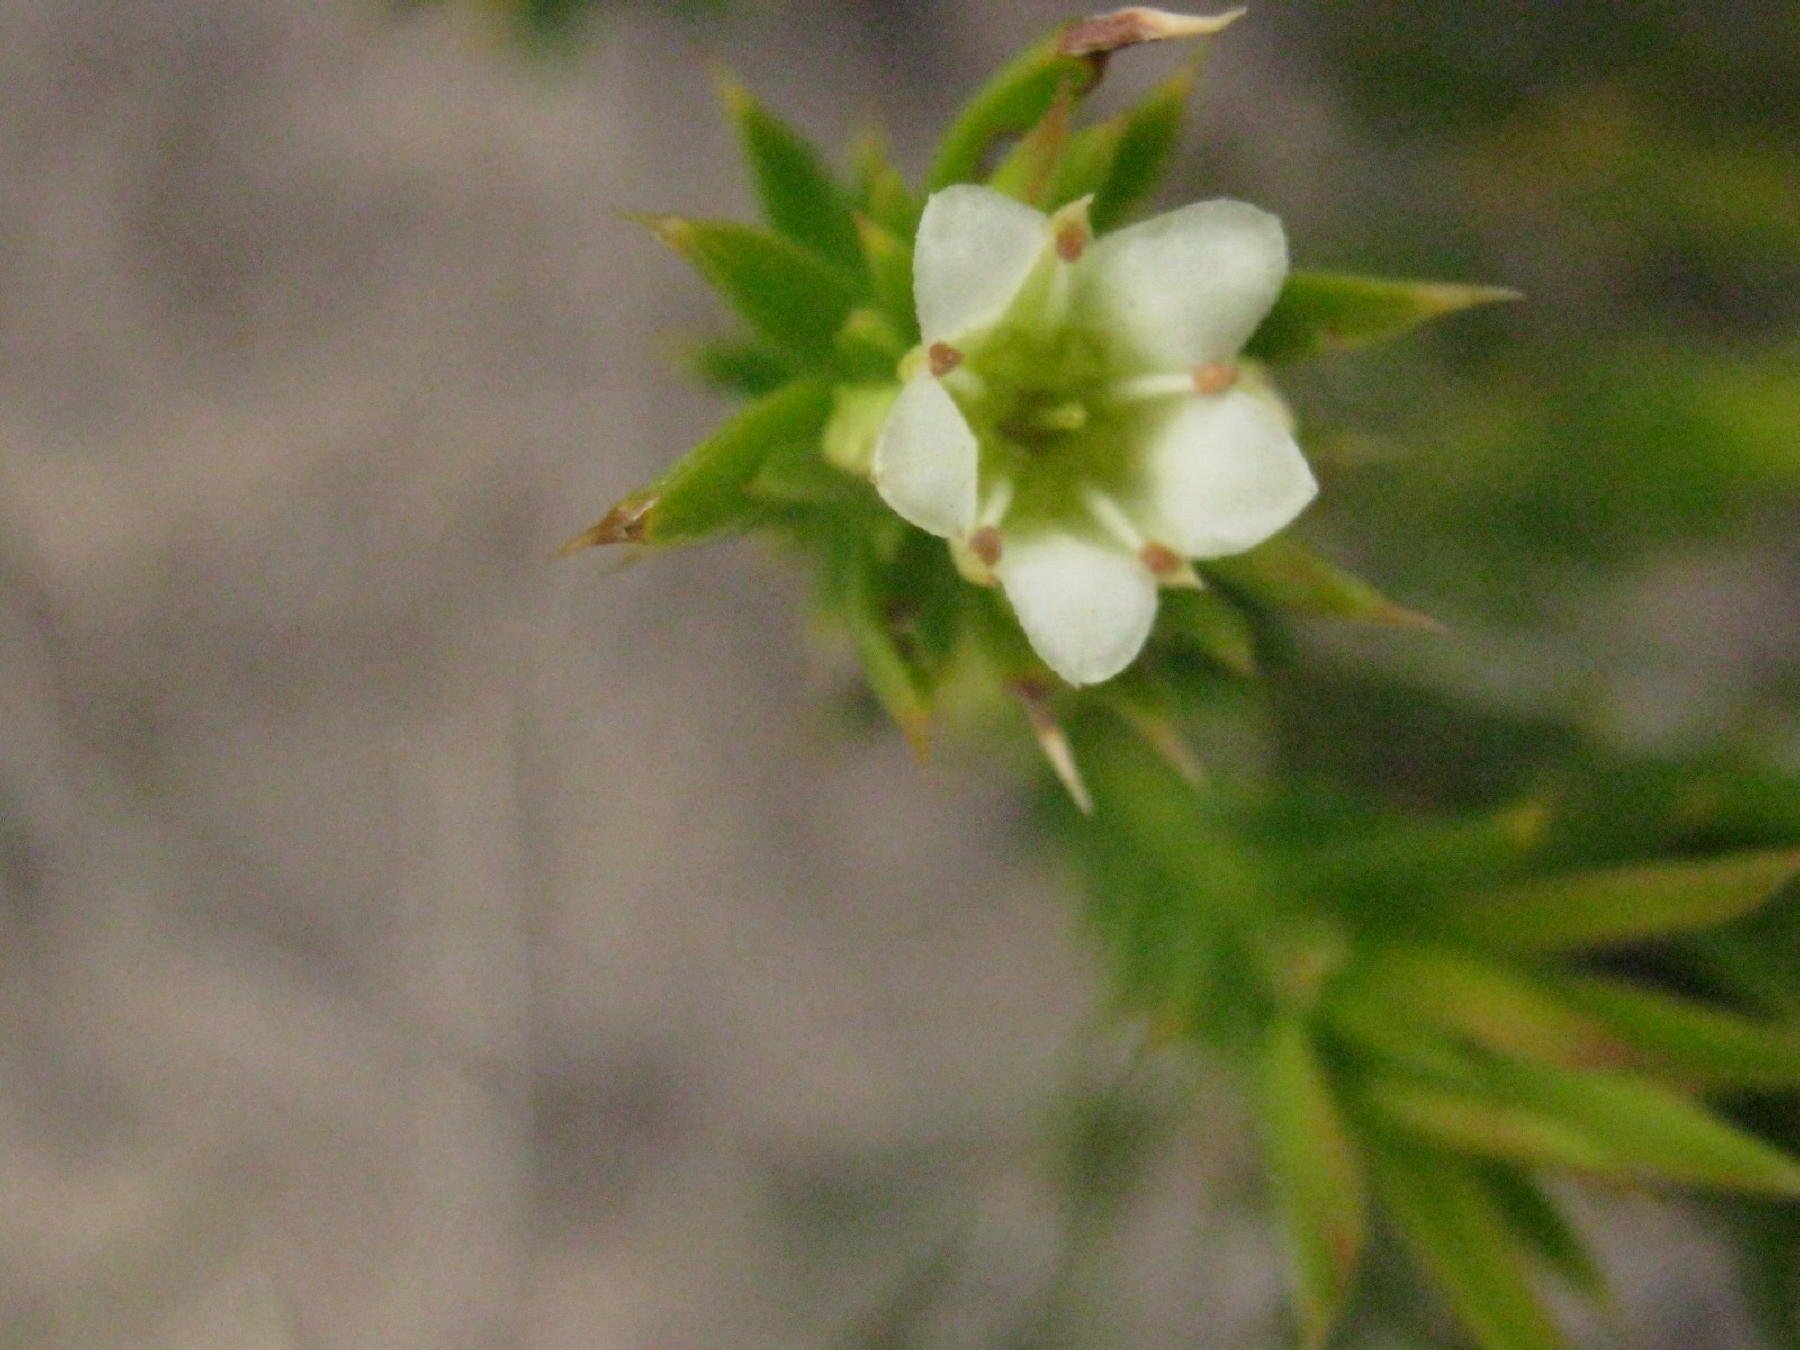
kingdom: Plantae
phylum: Tracheophyta
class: Magnoliopsida
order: Sapindales
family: Rutaceae
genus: Diosma
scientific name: Diosma aristata
